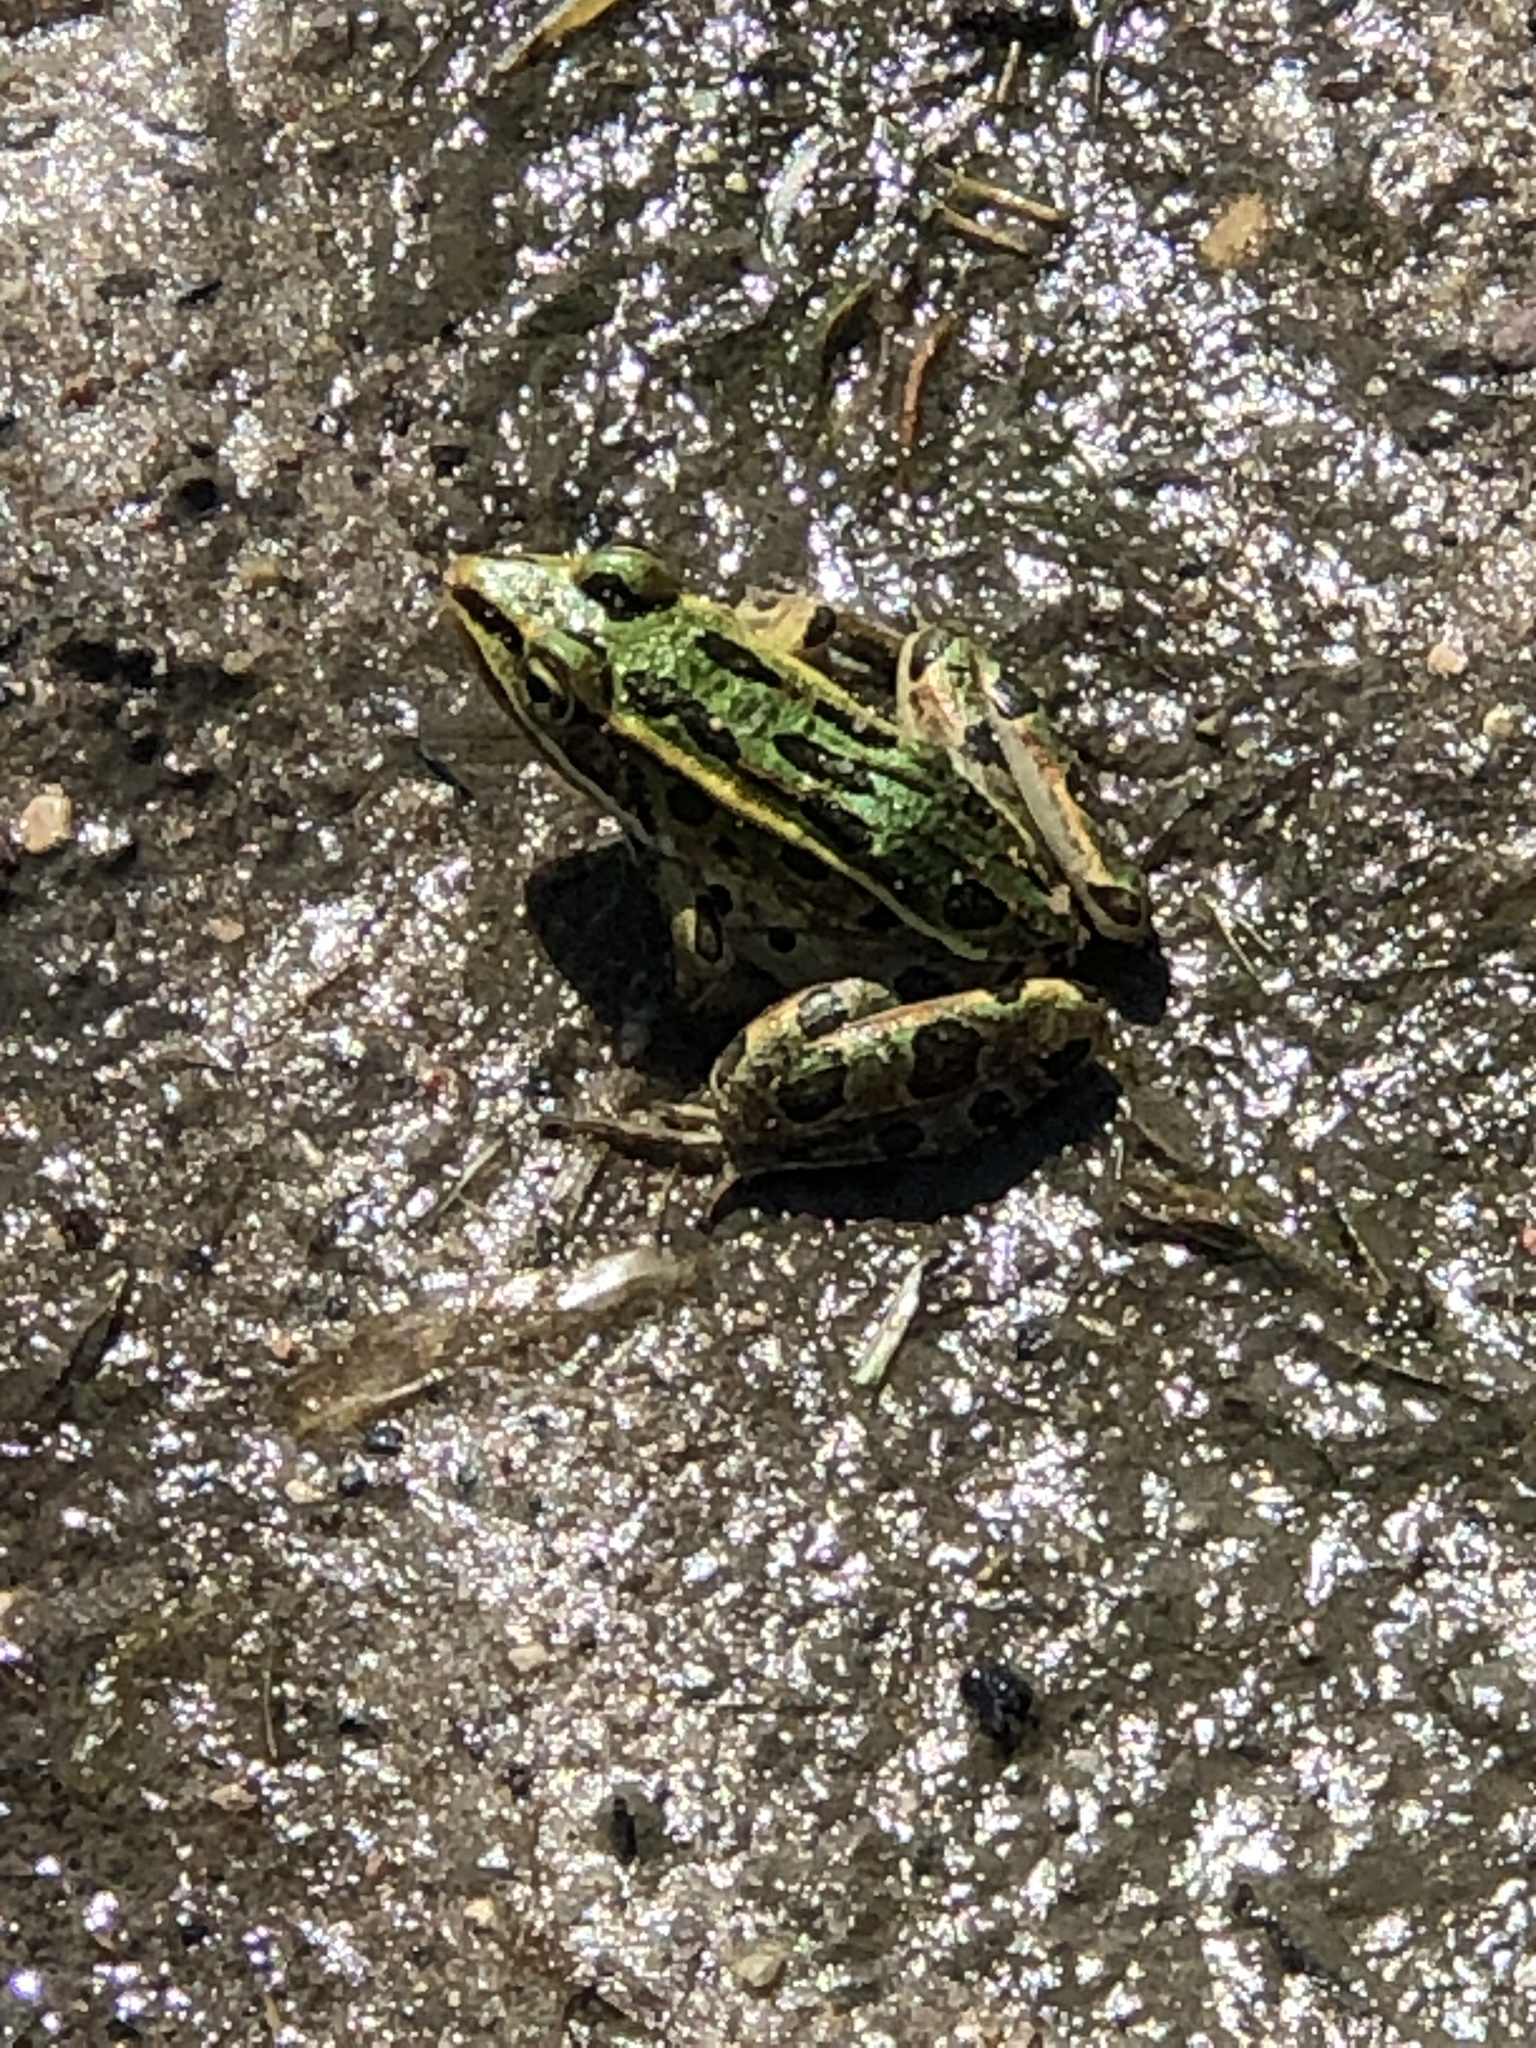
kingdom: Animalia
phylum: Chordata
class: Amphibia
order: Anura
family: Ranidae
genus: Lithobates
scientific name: Lithobates pipiens
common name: Northern leopard frog
